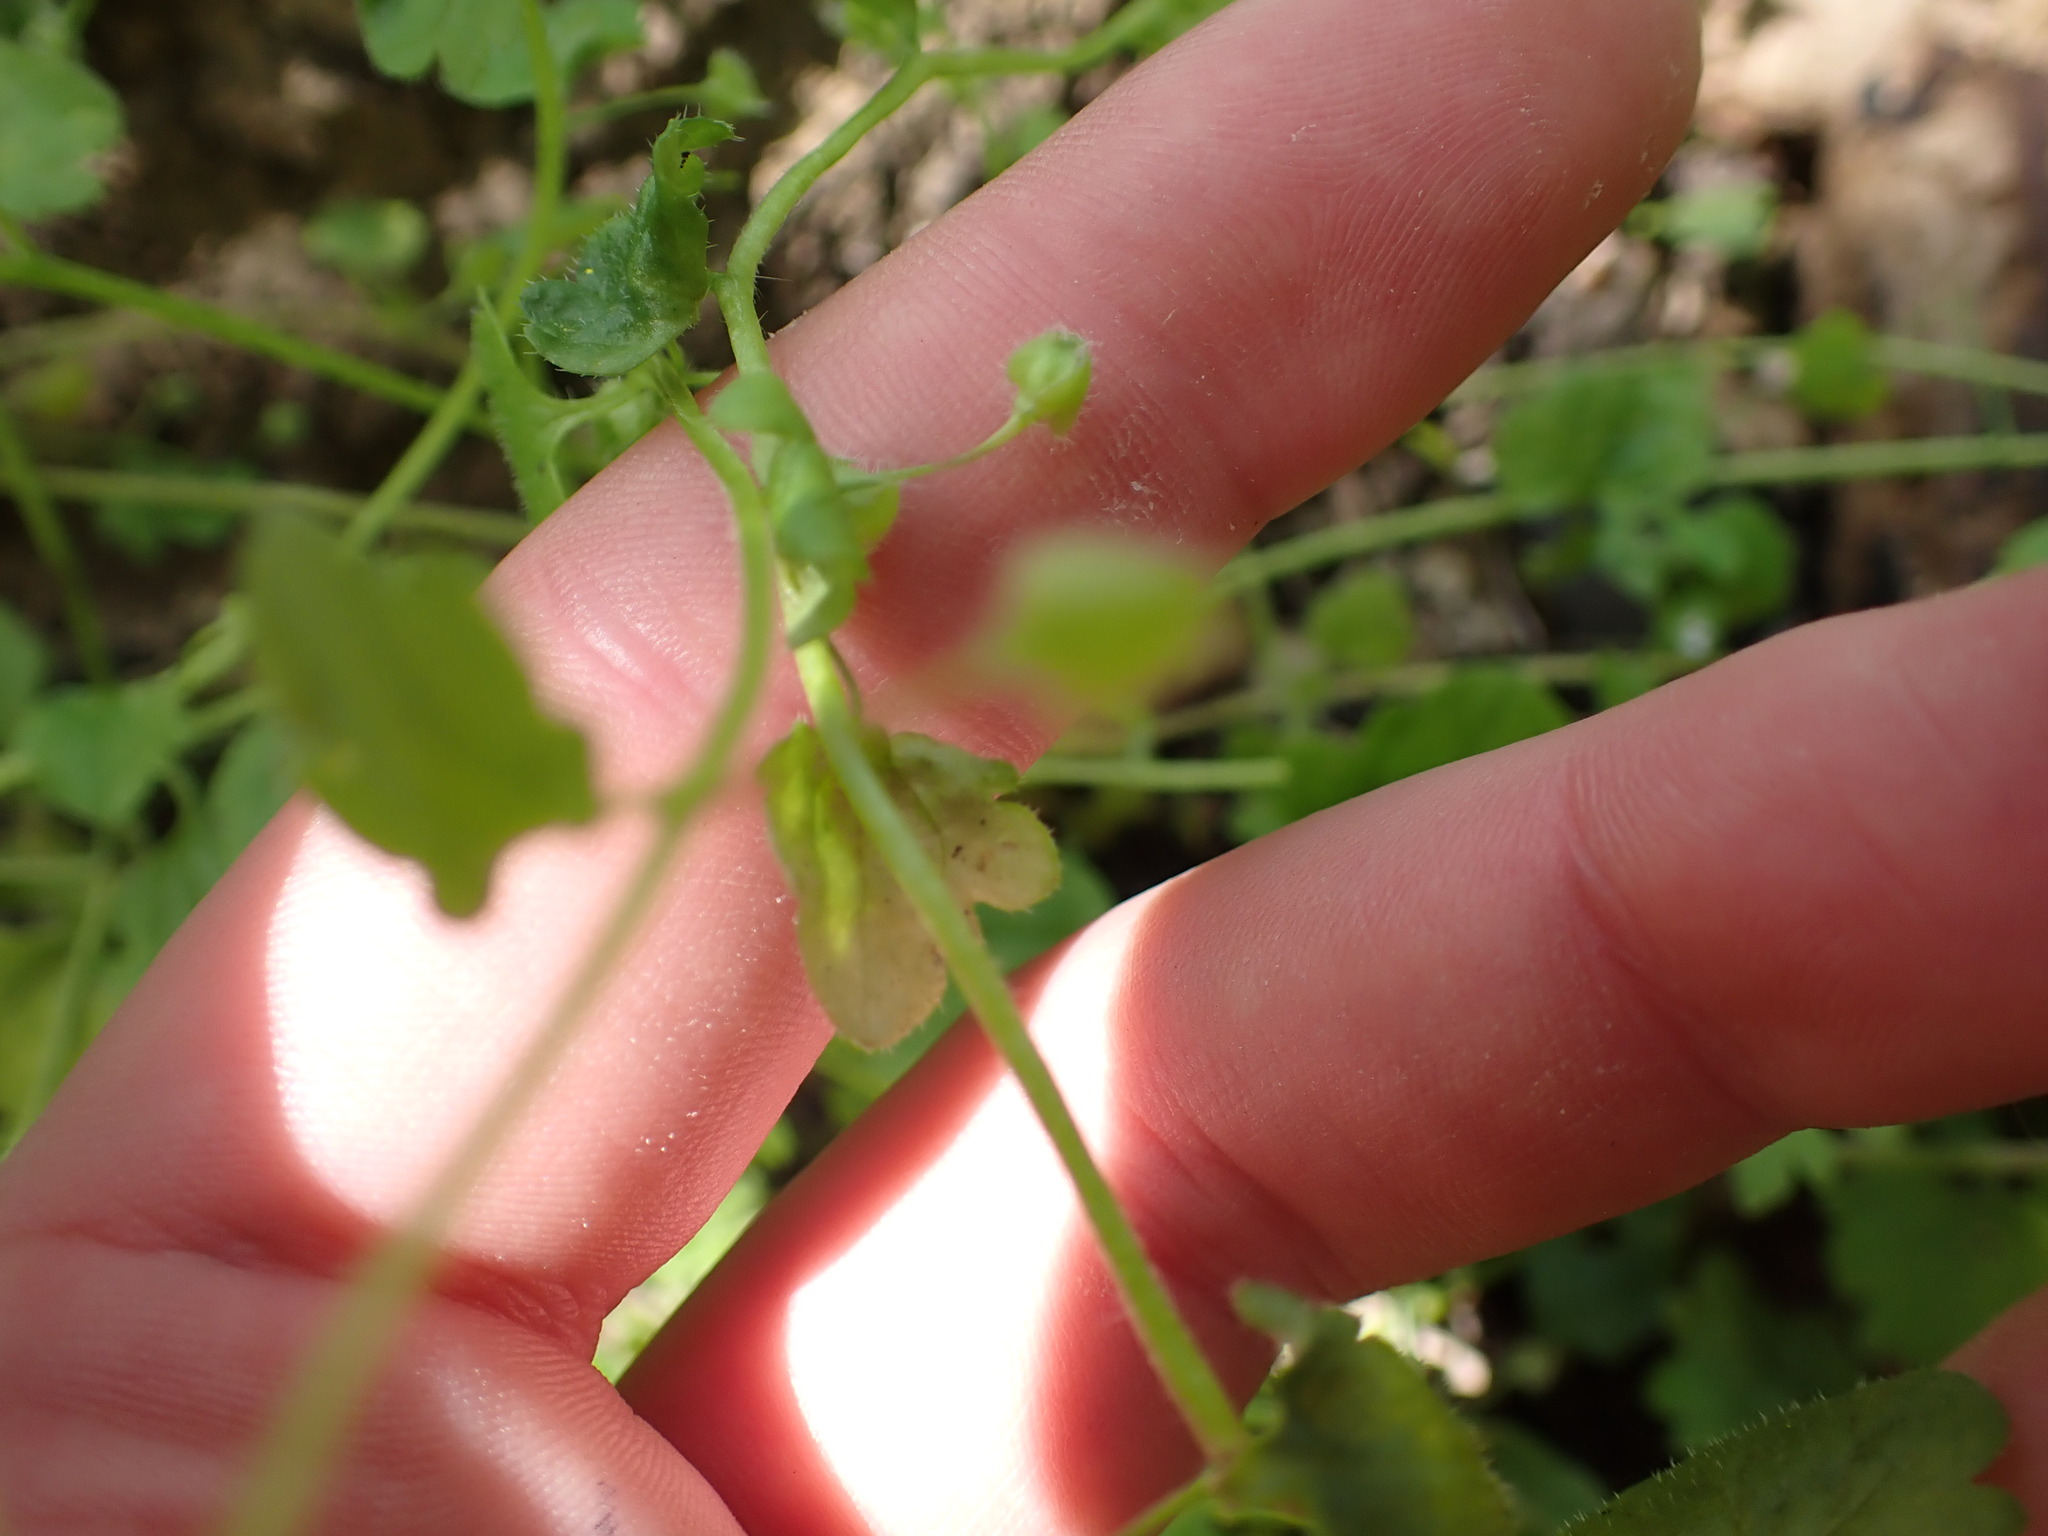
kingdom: Plantae
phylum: Tracheophyta
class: Magnoliopsida
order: Lamiales
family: Plantaginaceae
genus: Veronica
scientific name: Veronica hederifolia
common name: Ivy-leaved speedwell
